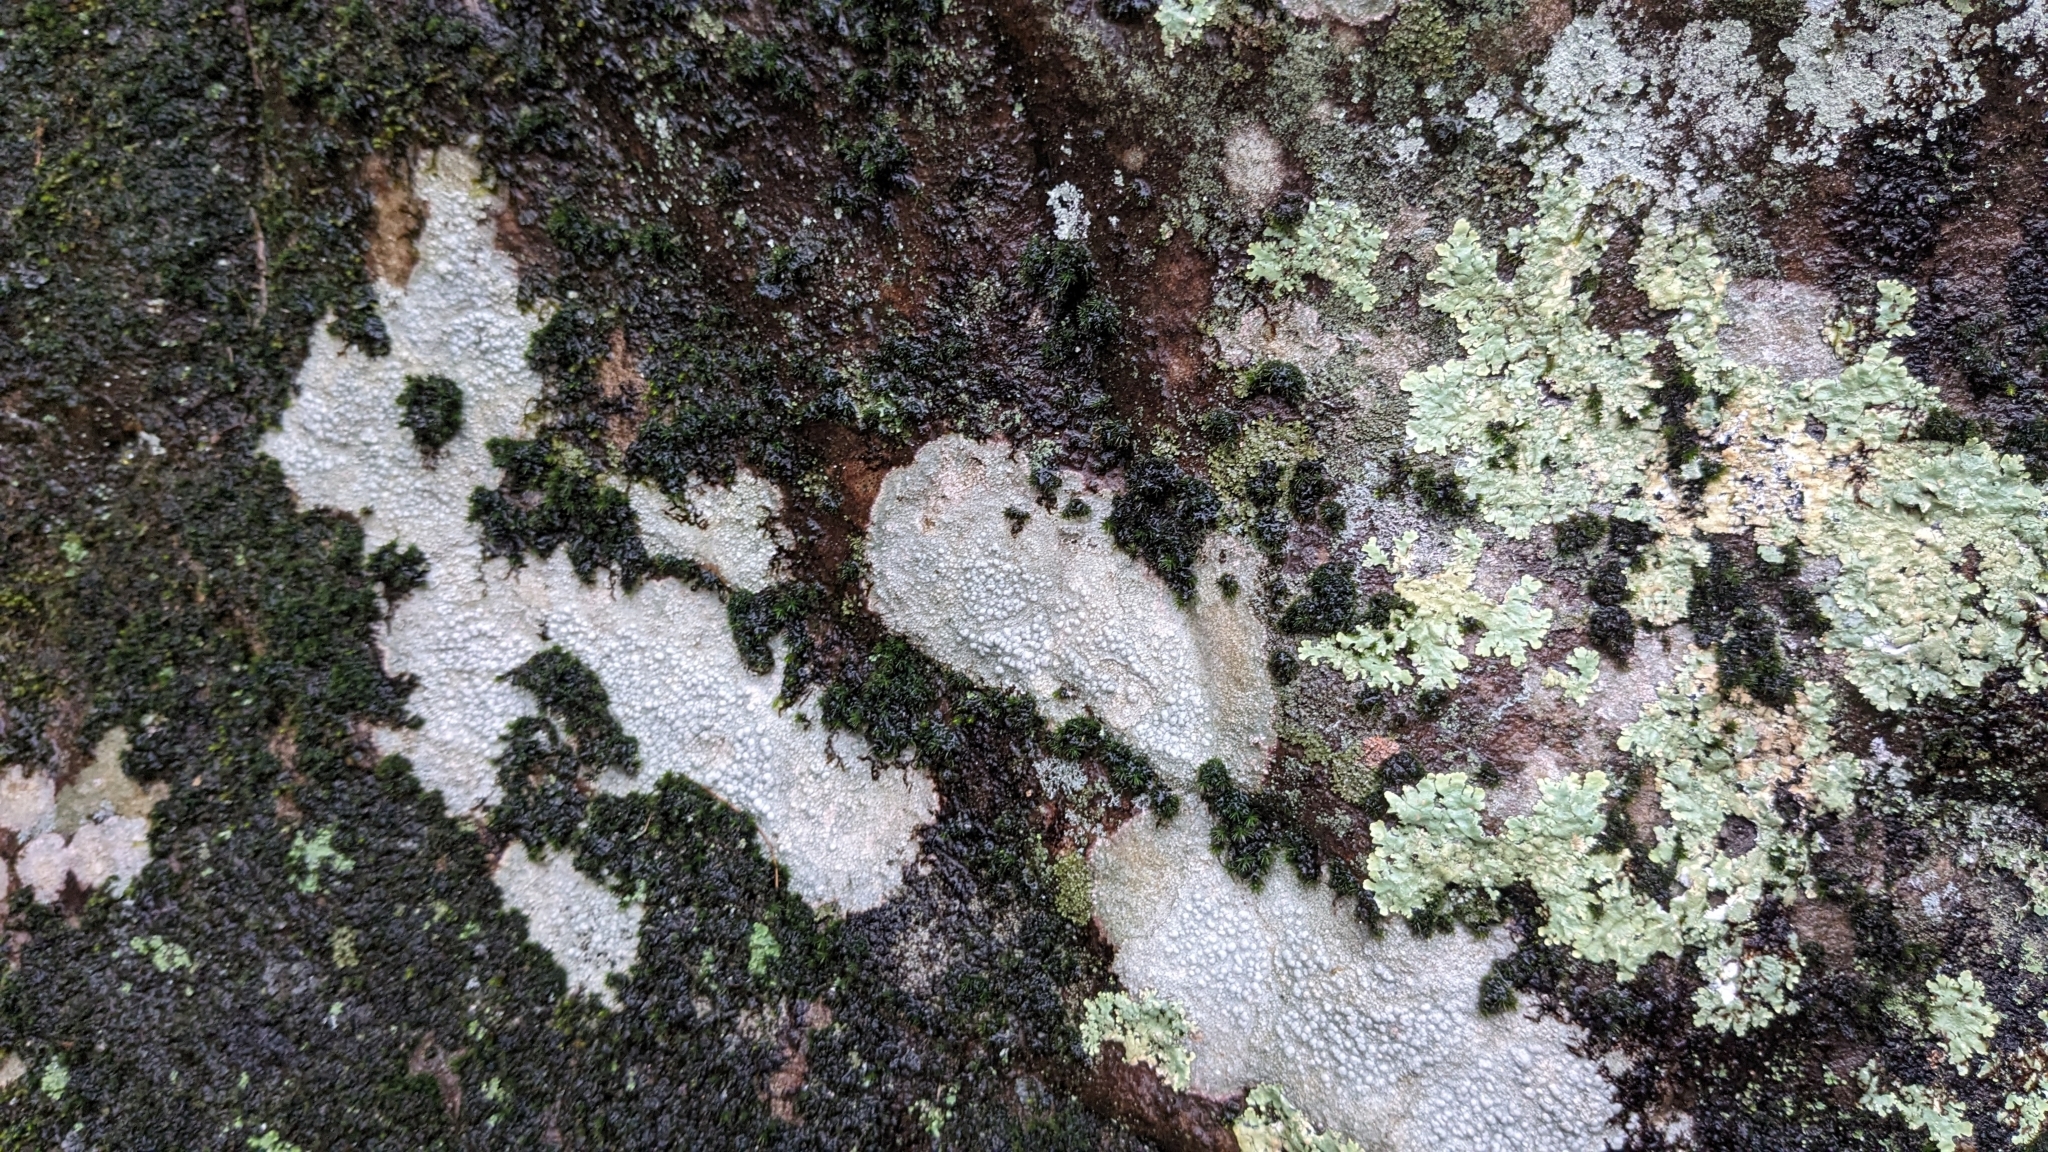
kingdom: Fungi
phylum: Ascomycota
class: Lecanoromycetes
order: Pertusariales
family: Pertusariaceae
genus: Pertusaria
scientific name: Pertusaria plittiana
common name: Rock wart lichen
